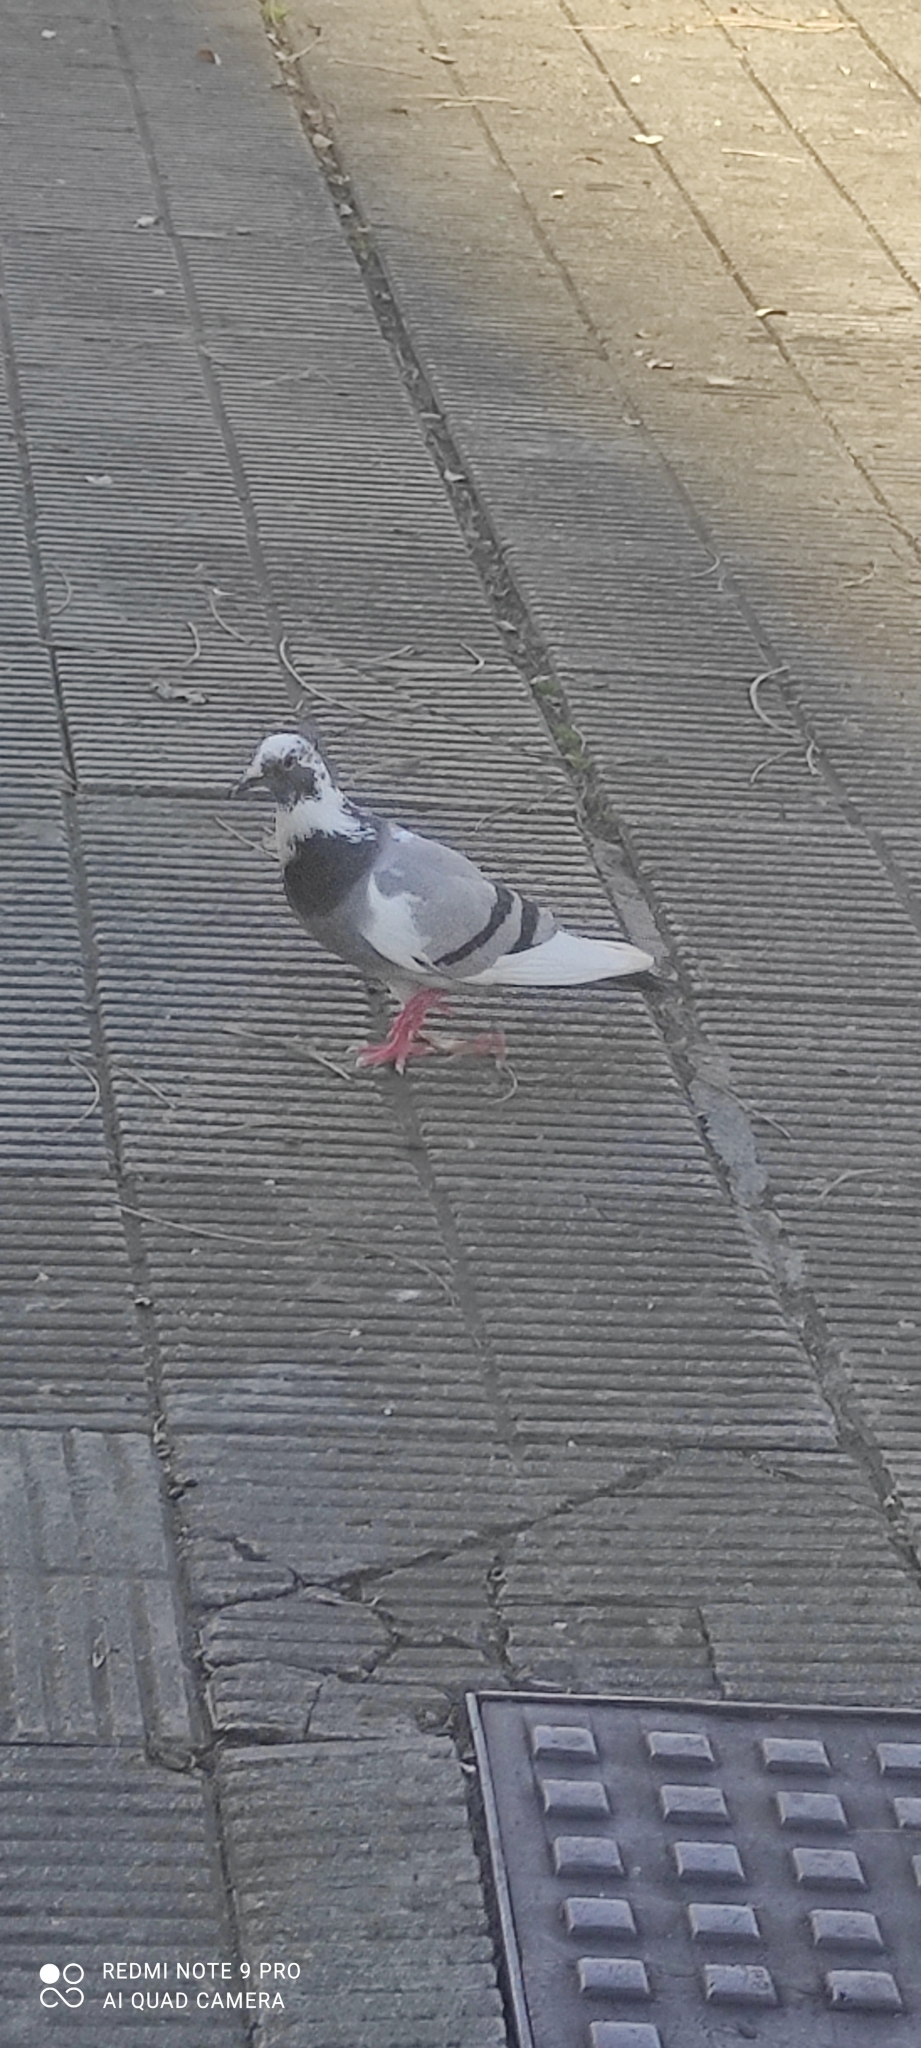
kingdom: Animalia
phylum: Chordata
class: Aves
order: Columbiformes
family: Columbidae
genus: Columba
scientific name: Columba livia
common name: Rock pigeon
